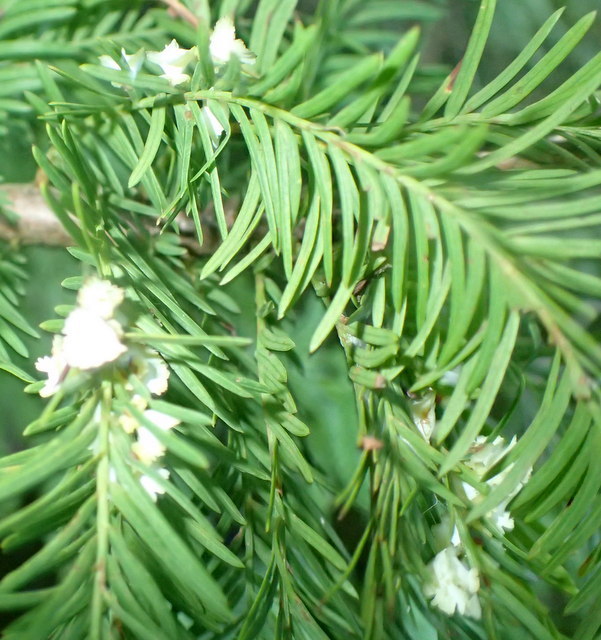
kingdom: Animalia
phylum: Arthropoda
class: Insecta
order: Diptera
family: Cecidomyiidae
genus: Taxodiomyia
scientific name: Taxodiomyia cupressi
